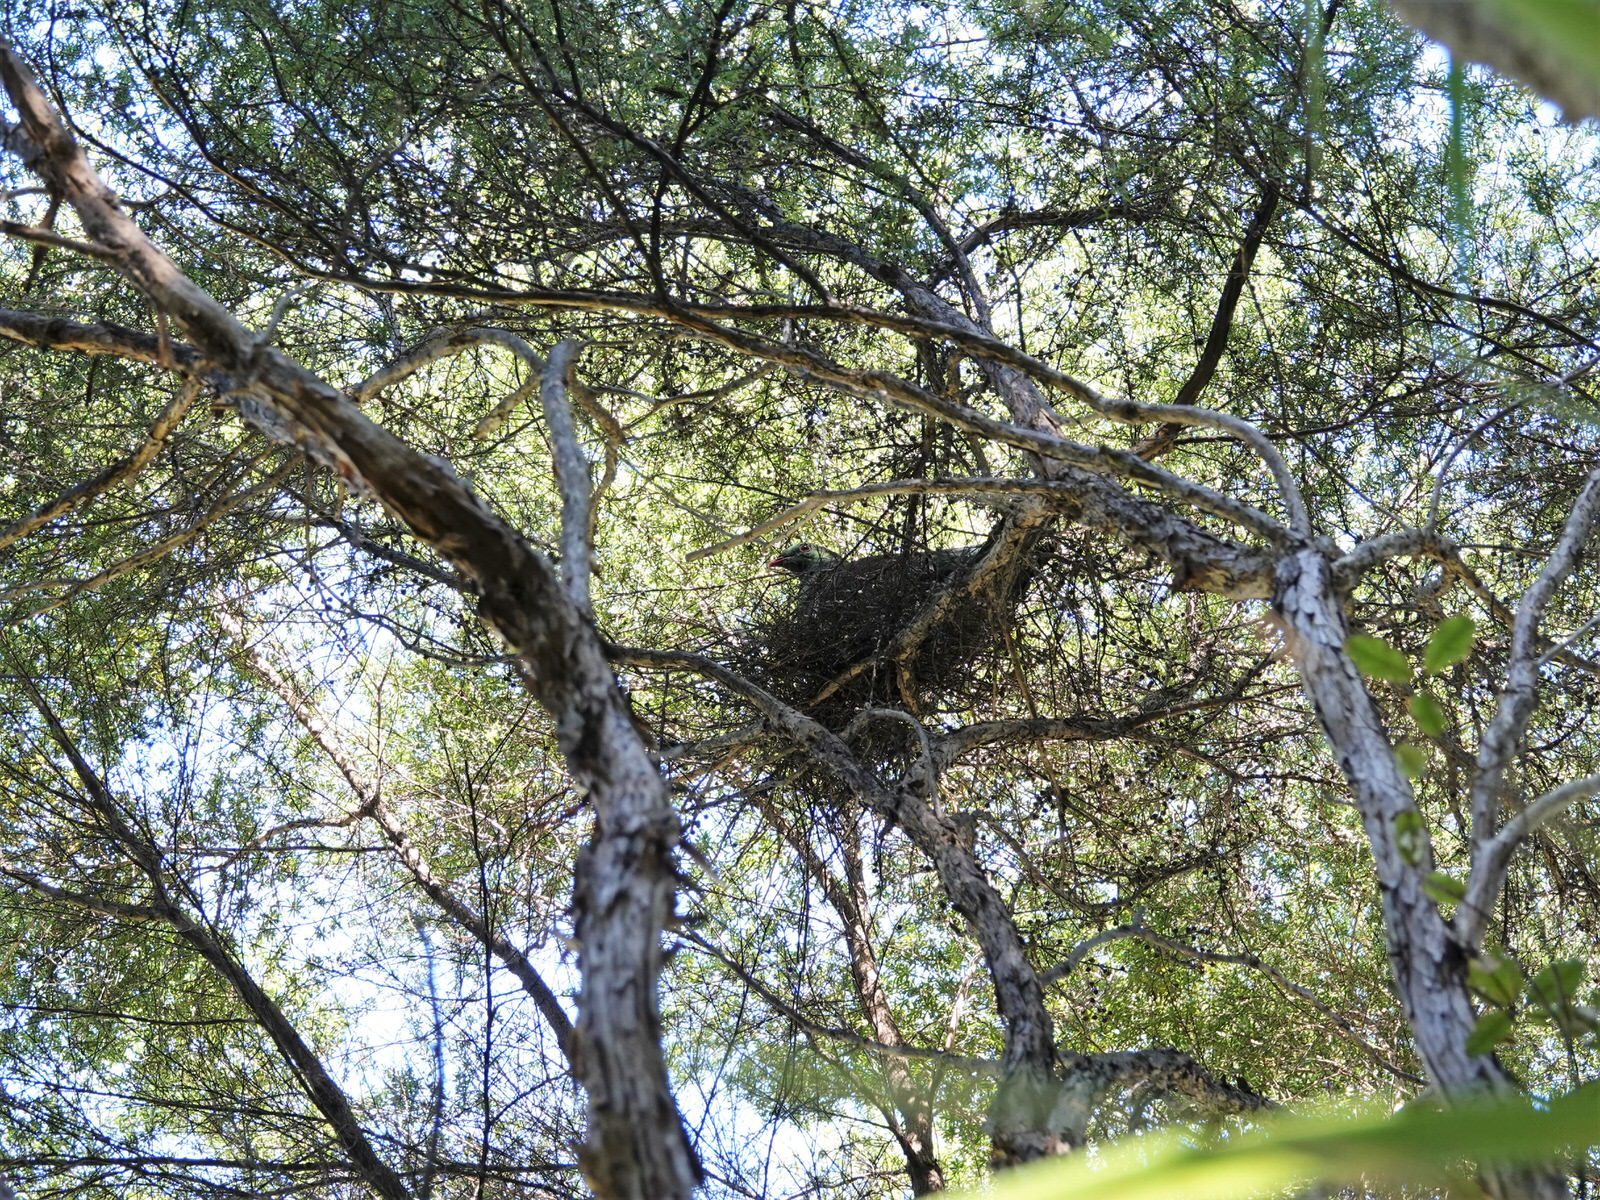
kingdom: Animalia
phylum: Chordata
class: Aves
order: Columbiformes
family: Columbidae
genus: Hemiphaga
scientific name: Hemiphaga novaeseelandiae
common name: New zealand pigeon
